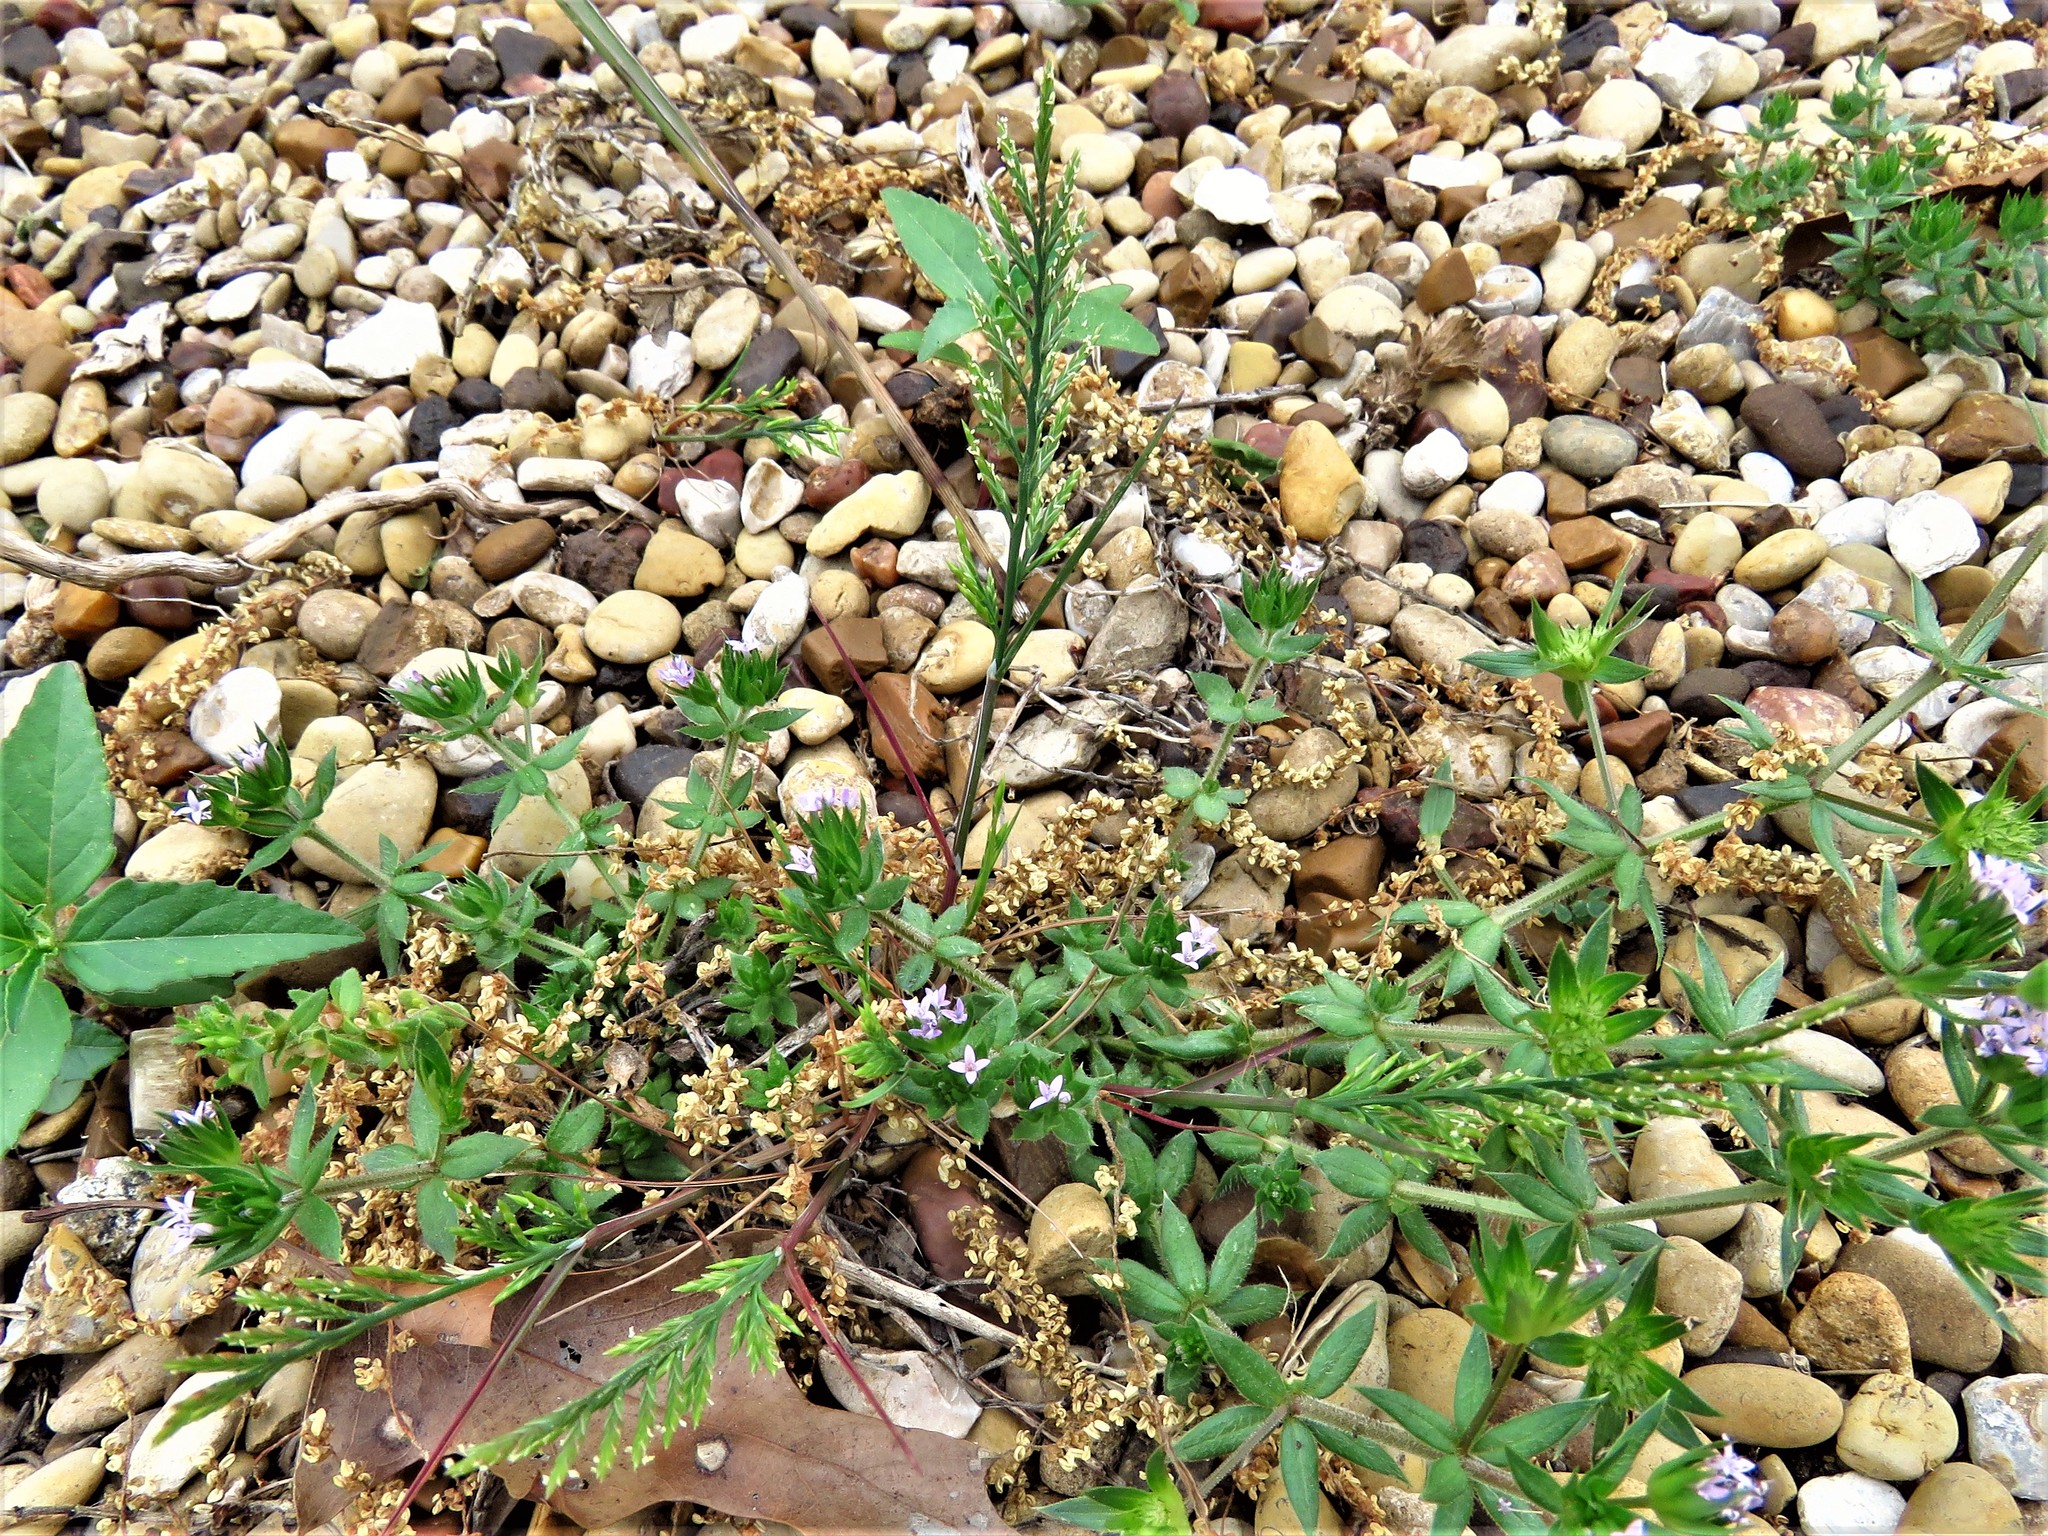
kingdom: Plantae
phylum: Tracheophyta
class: Liliopsida
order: Poales
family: Poaceae
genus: Catapodium
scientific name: Catapodium rigidum
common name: Fern-grass
